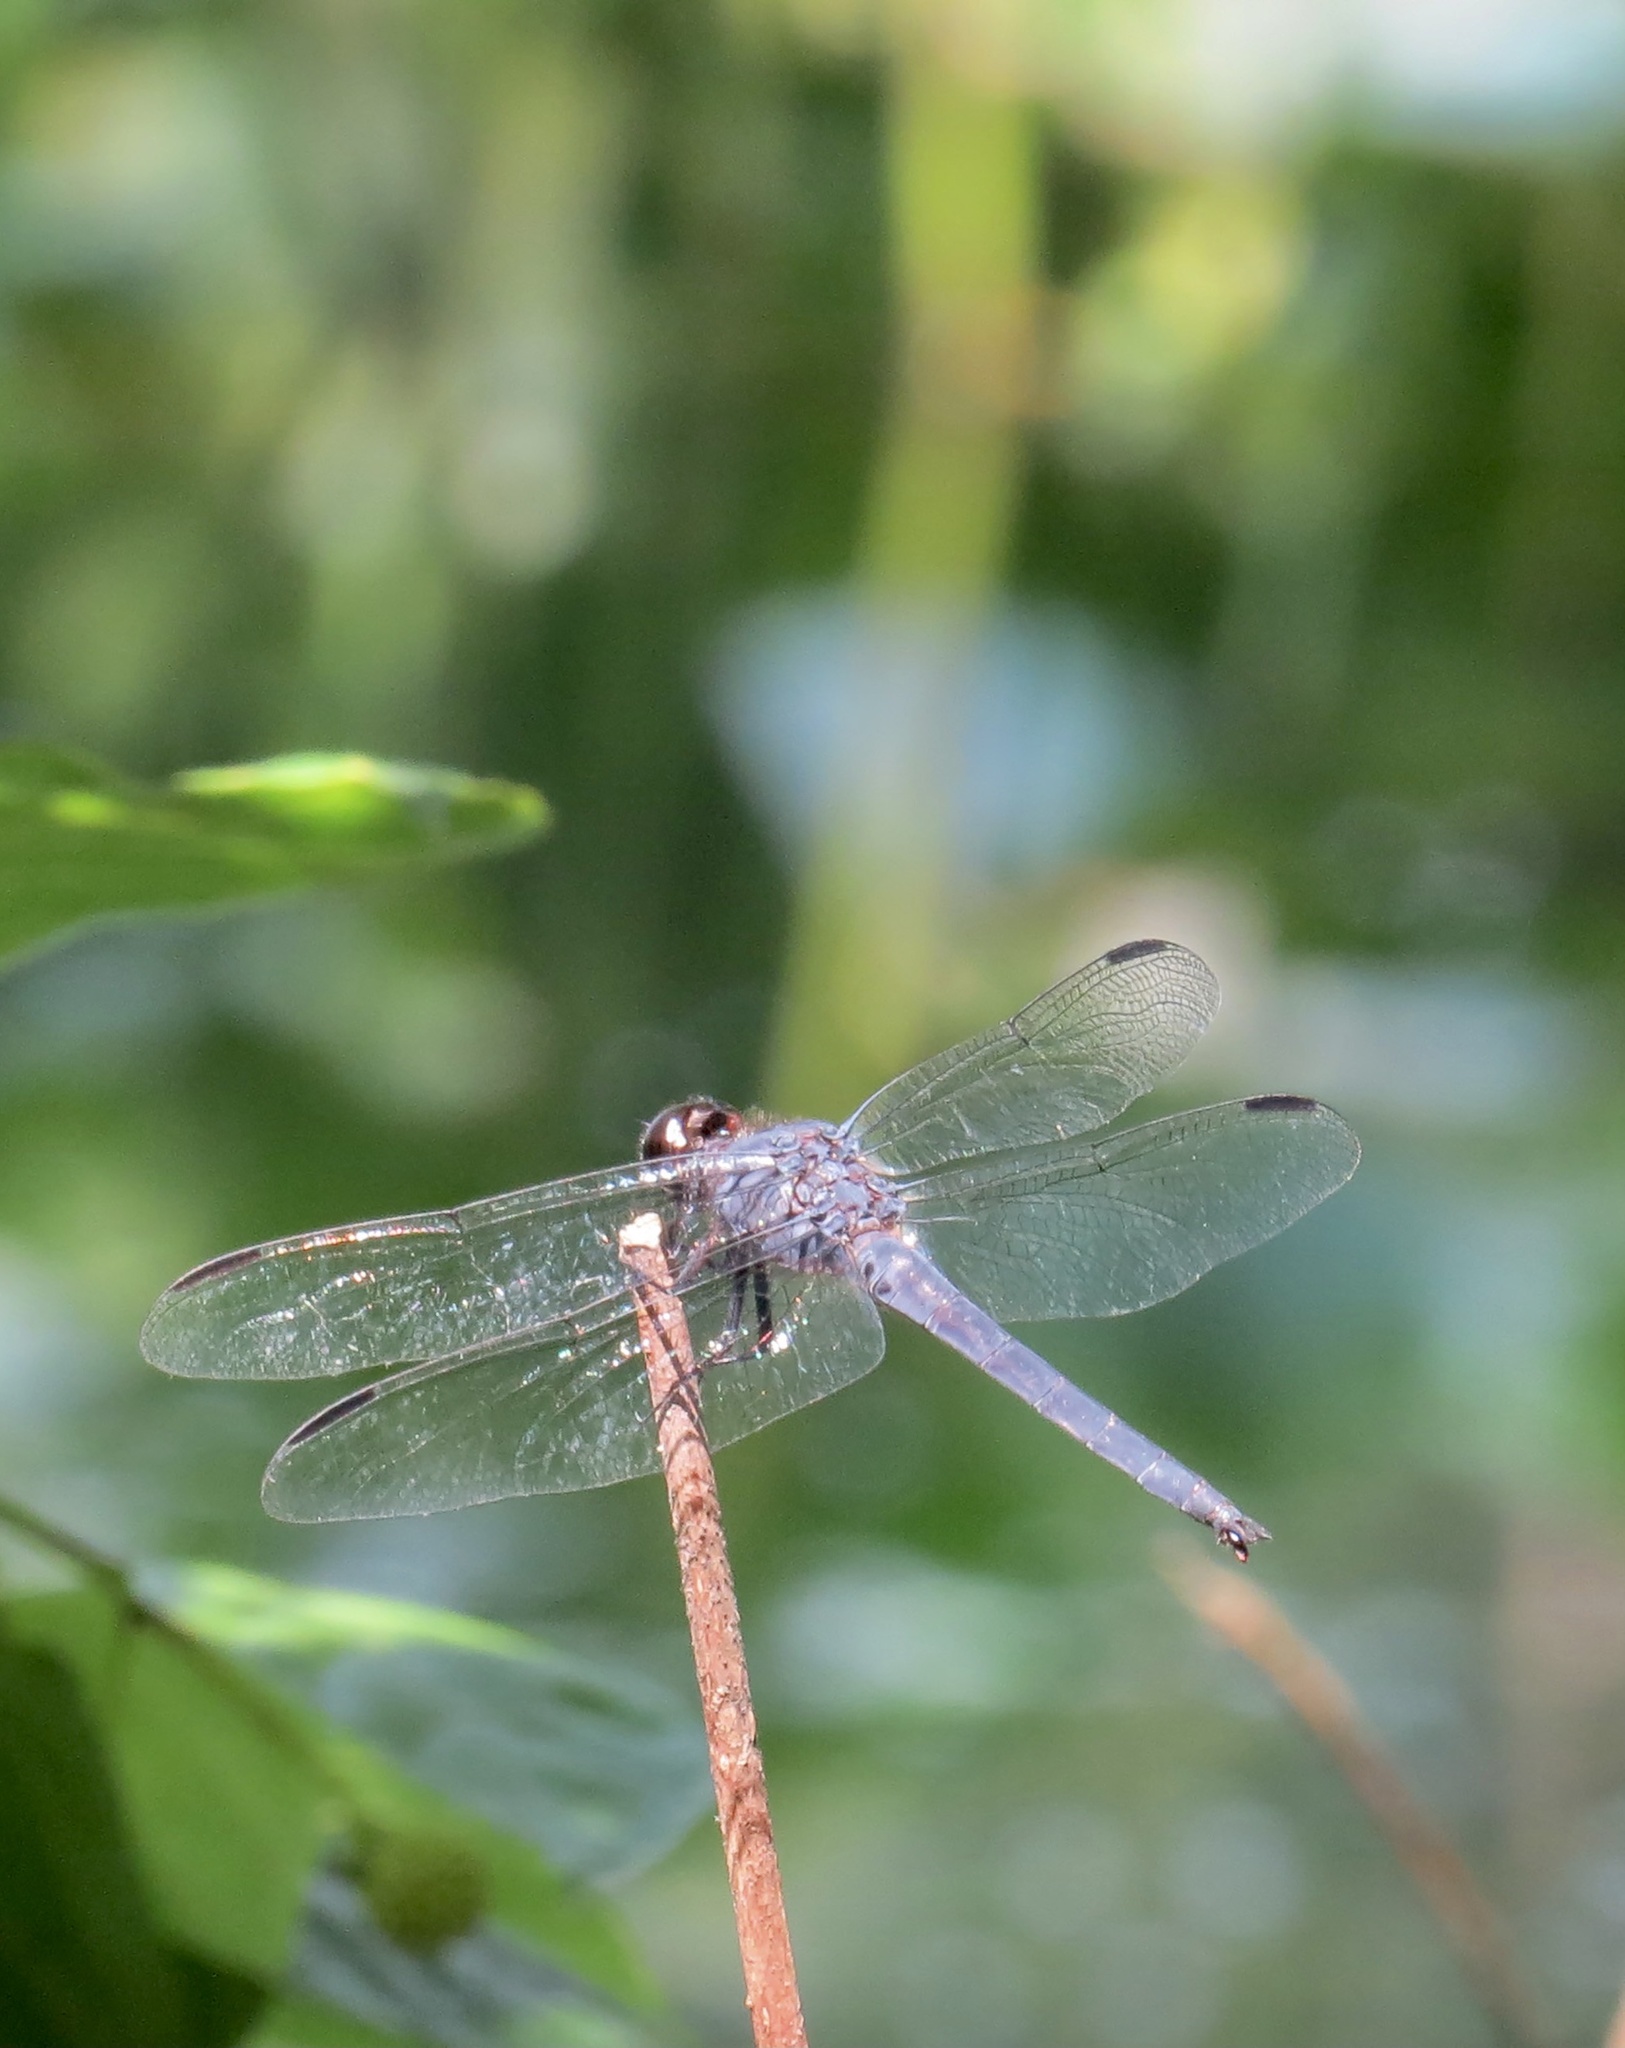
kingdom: Animalia
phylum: Arthropoda
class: Insecta
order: Odonata
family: Libellulidae
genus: Libellula
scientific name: Libellula incesta
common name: Slaty skimmer
